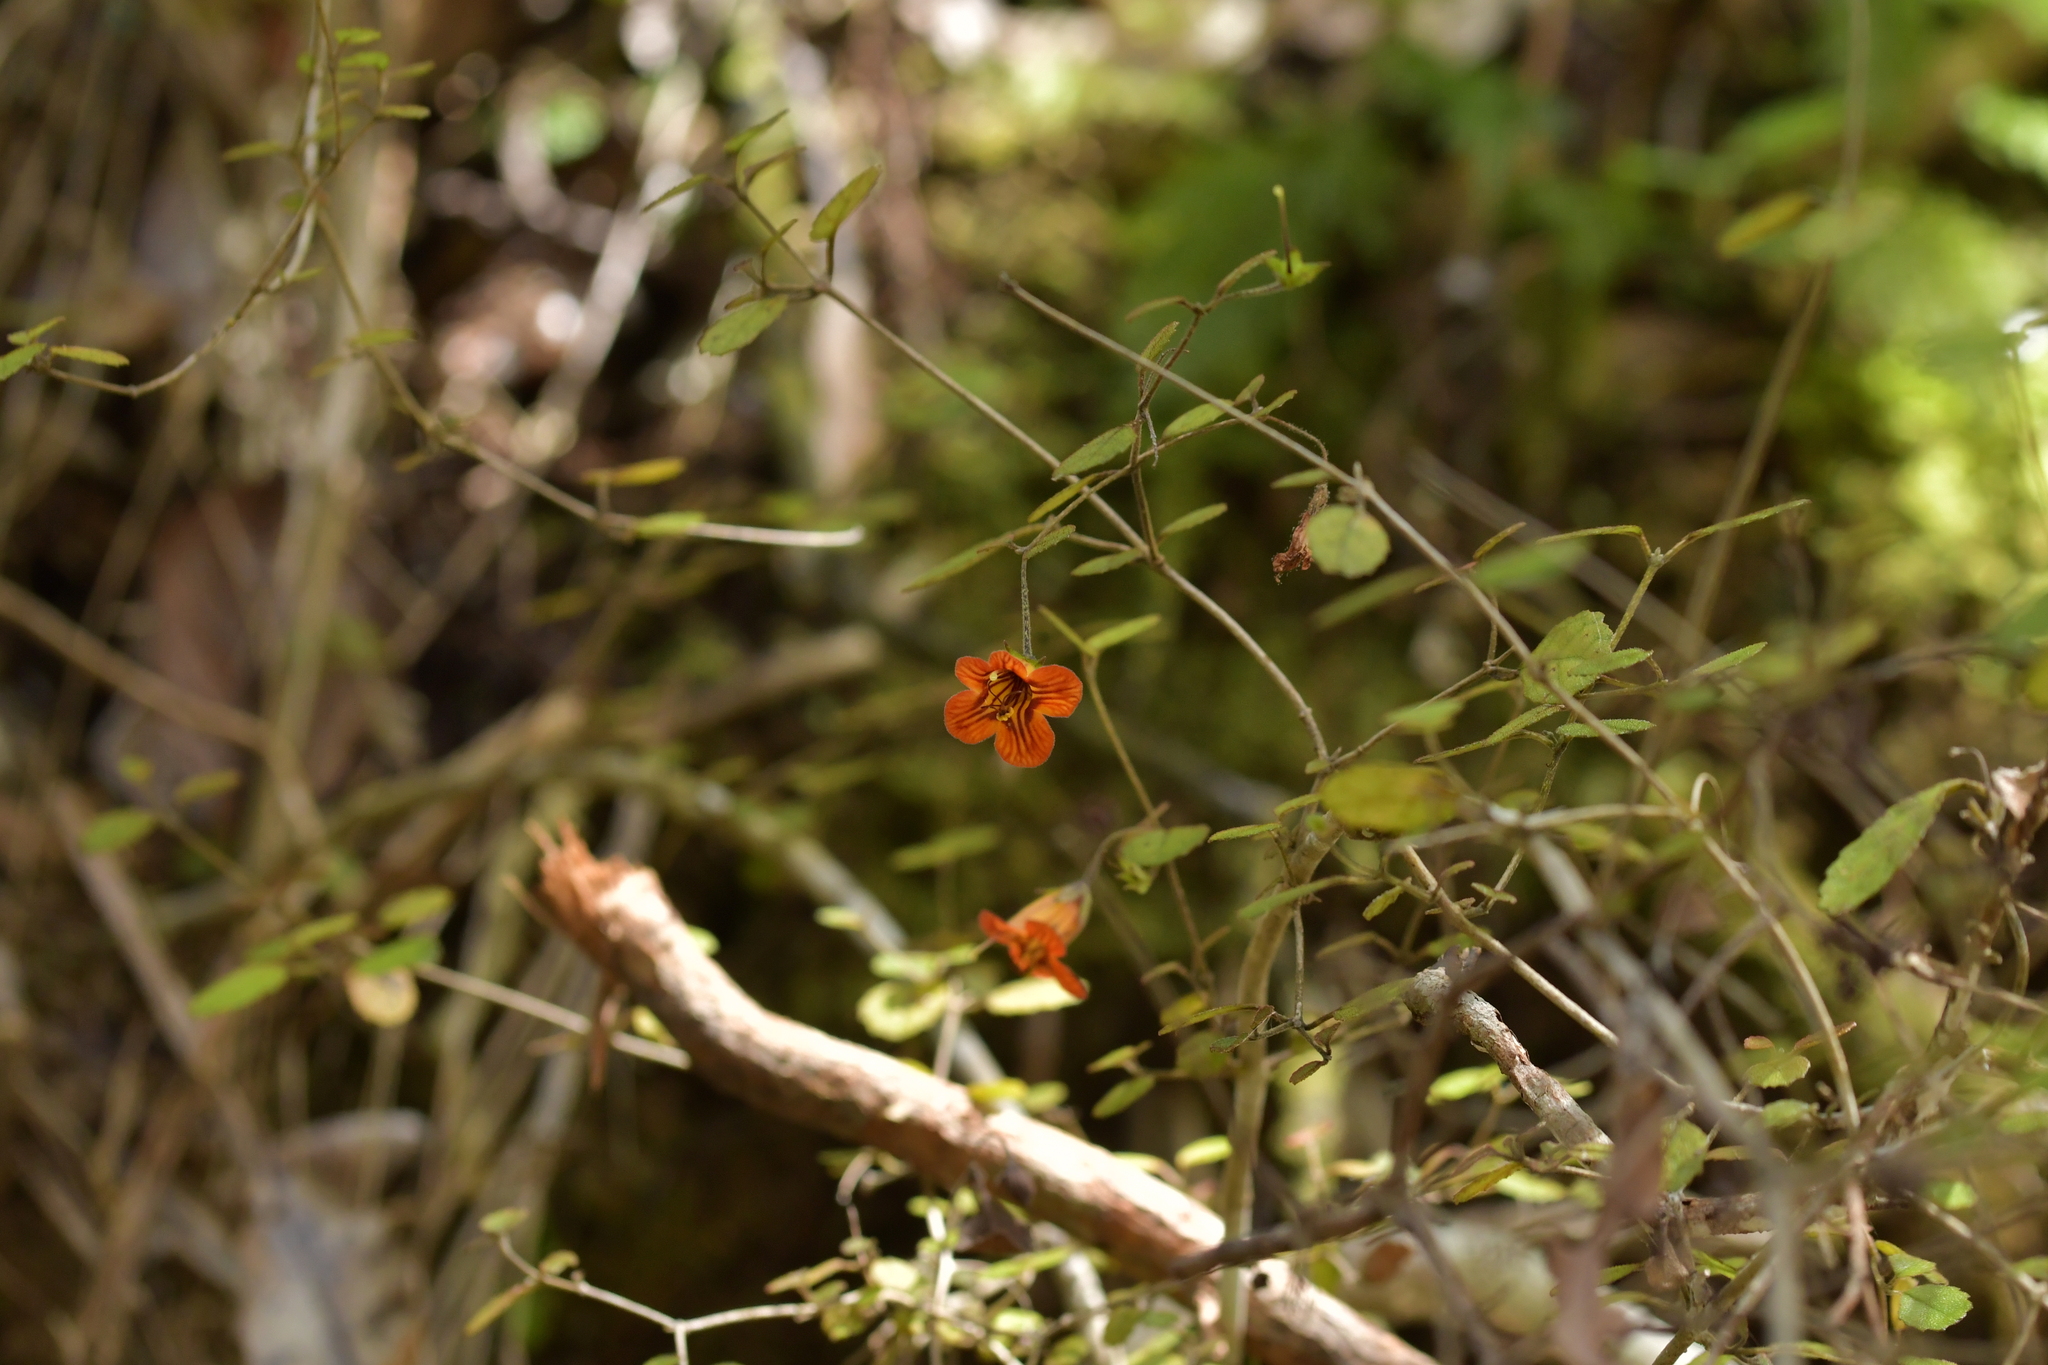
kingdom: Plantae
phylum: Tracheophyta
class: Magnoliopsida
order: Lamiales
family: Gesneriaceae
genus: Rhabdothamnus
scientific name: Rhabdothamnus solandri
